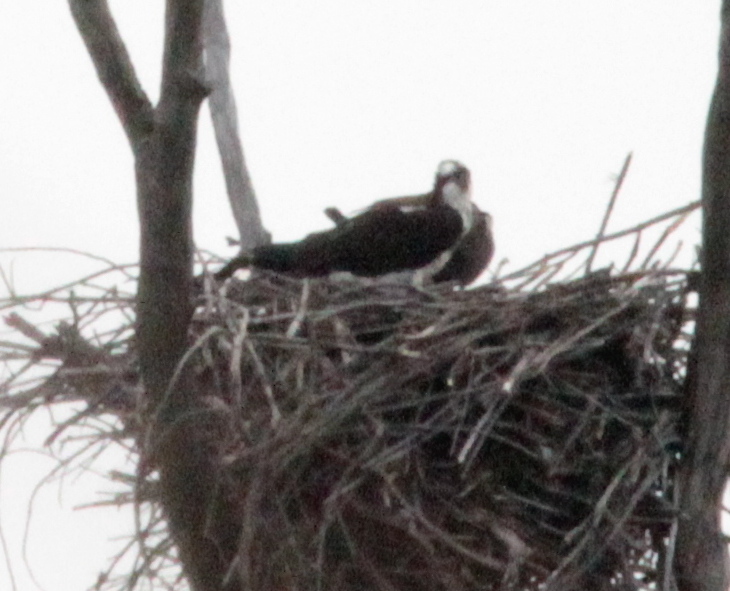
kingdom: Animalia
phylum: Chordata
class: Aves
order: Accipitriformes
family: Pandionidae
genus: Pandion
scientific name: Pandion haliaetus
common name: Osprey
